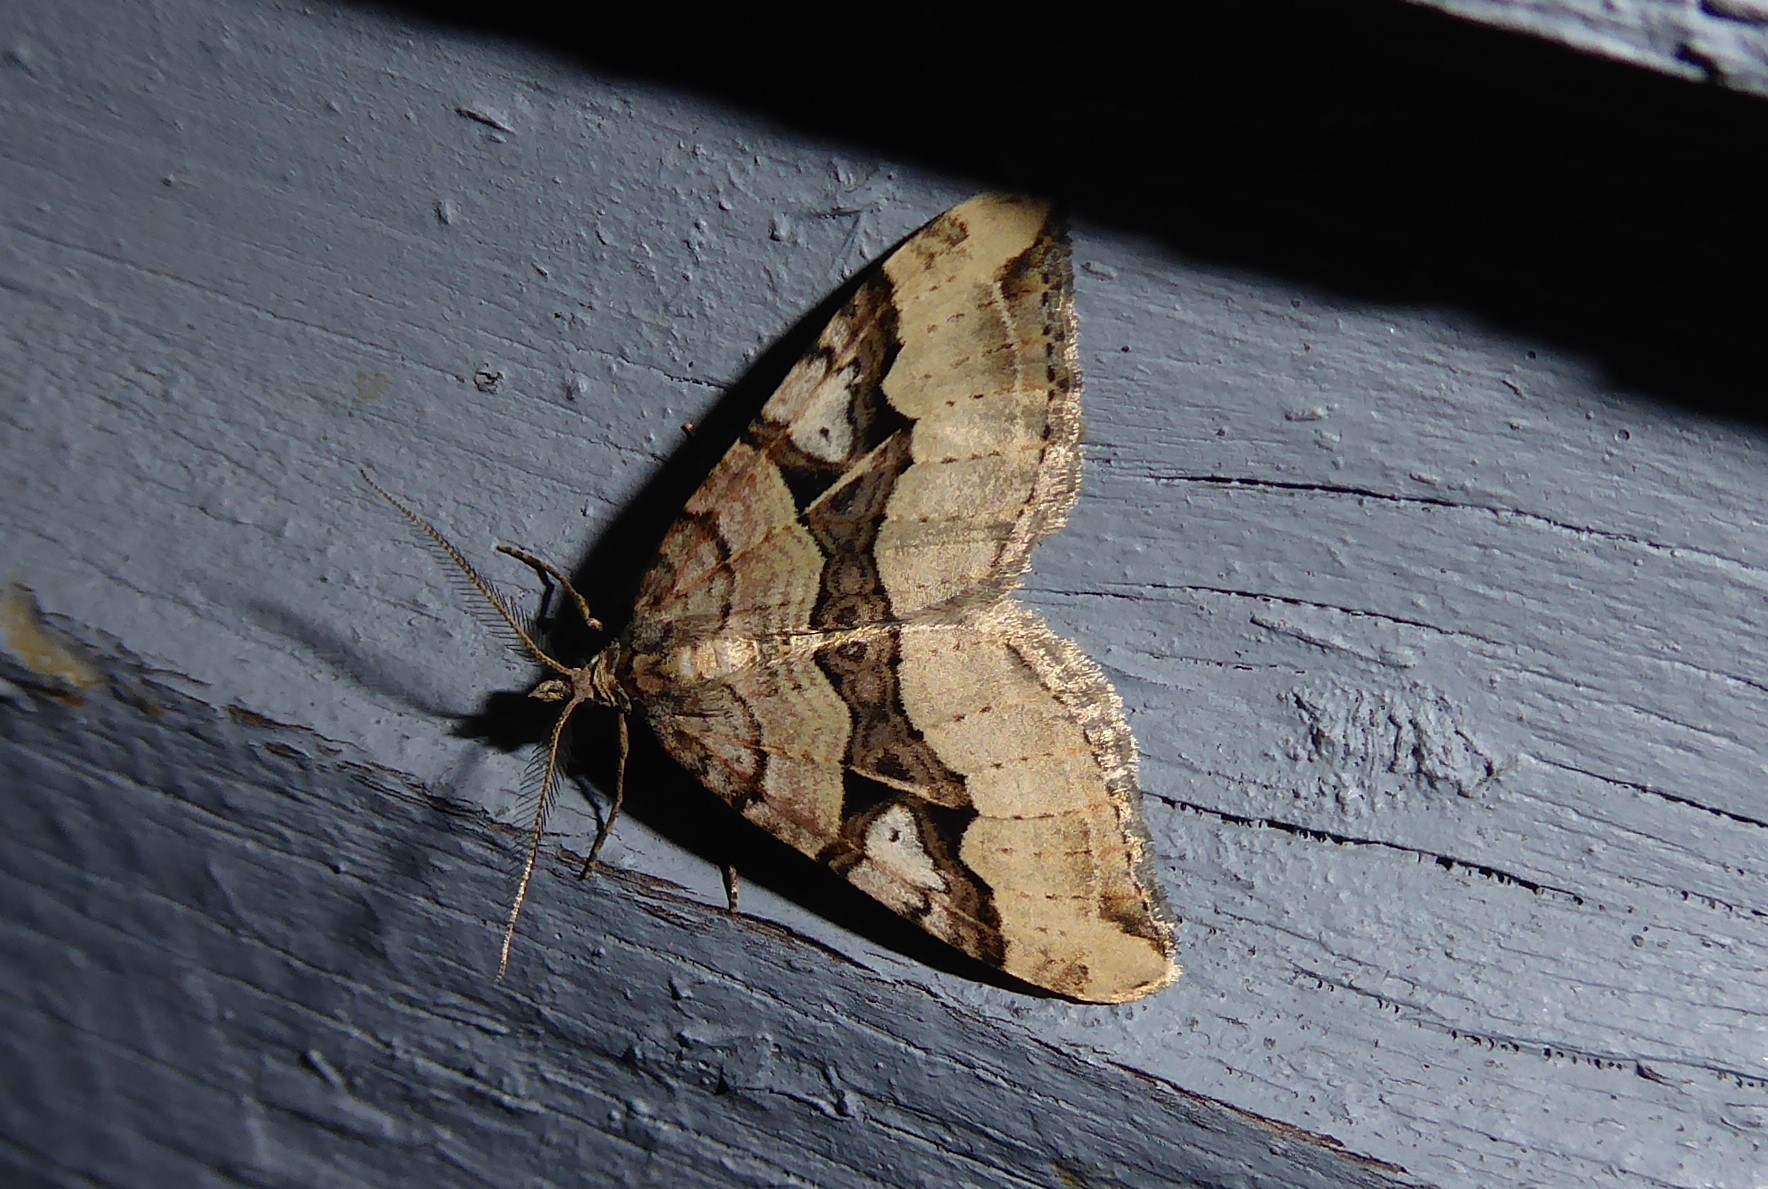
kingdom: Animalia
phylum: Arthropoda
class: Insecta
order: Lepidoptera
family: Geometridae
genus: Xanthorhoe
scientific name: Xanthorhoe semifissata
